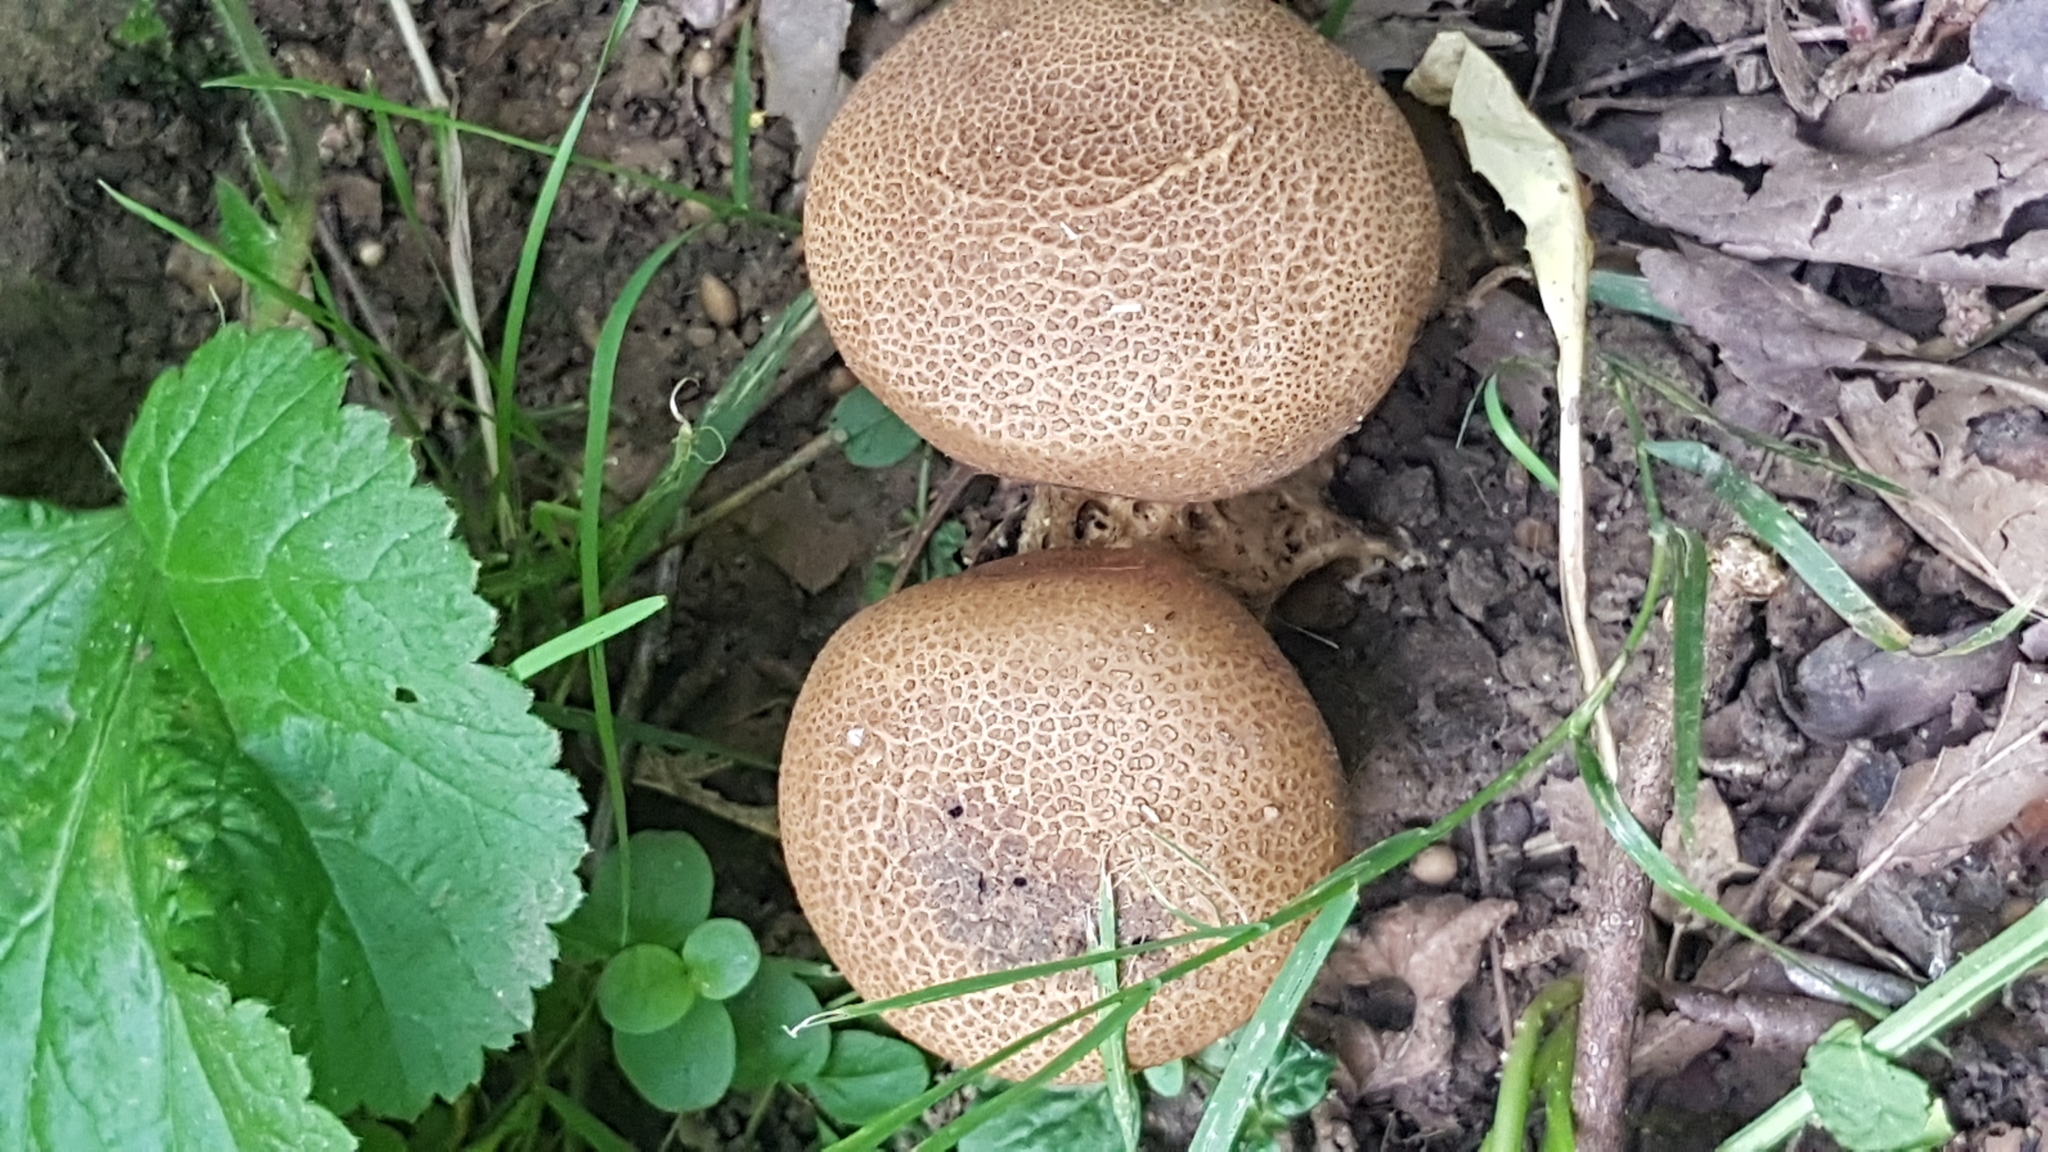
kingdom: Fungi
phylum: Basidiomycota
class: Agaricomycetes
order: Boletales
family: Sclerodermataceae
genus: Scleroderma
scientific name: Scleroderma verrucosum
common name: Scaly earthball
